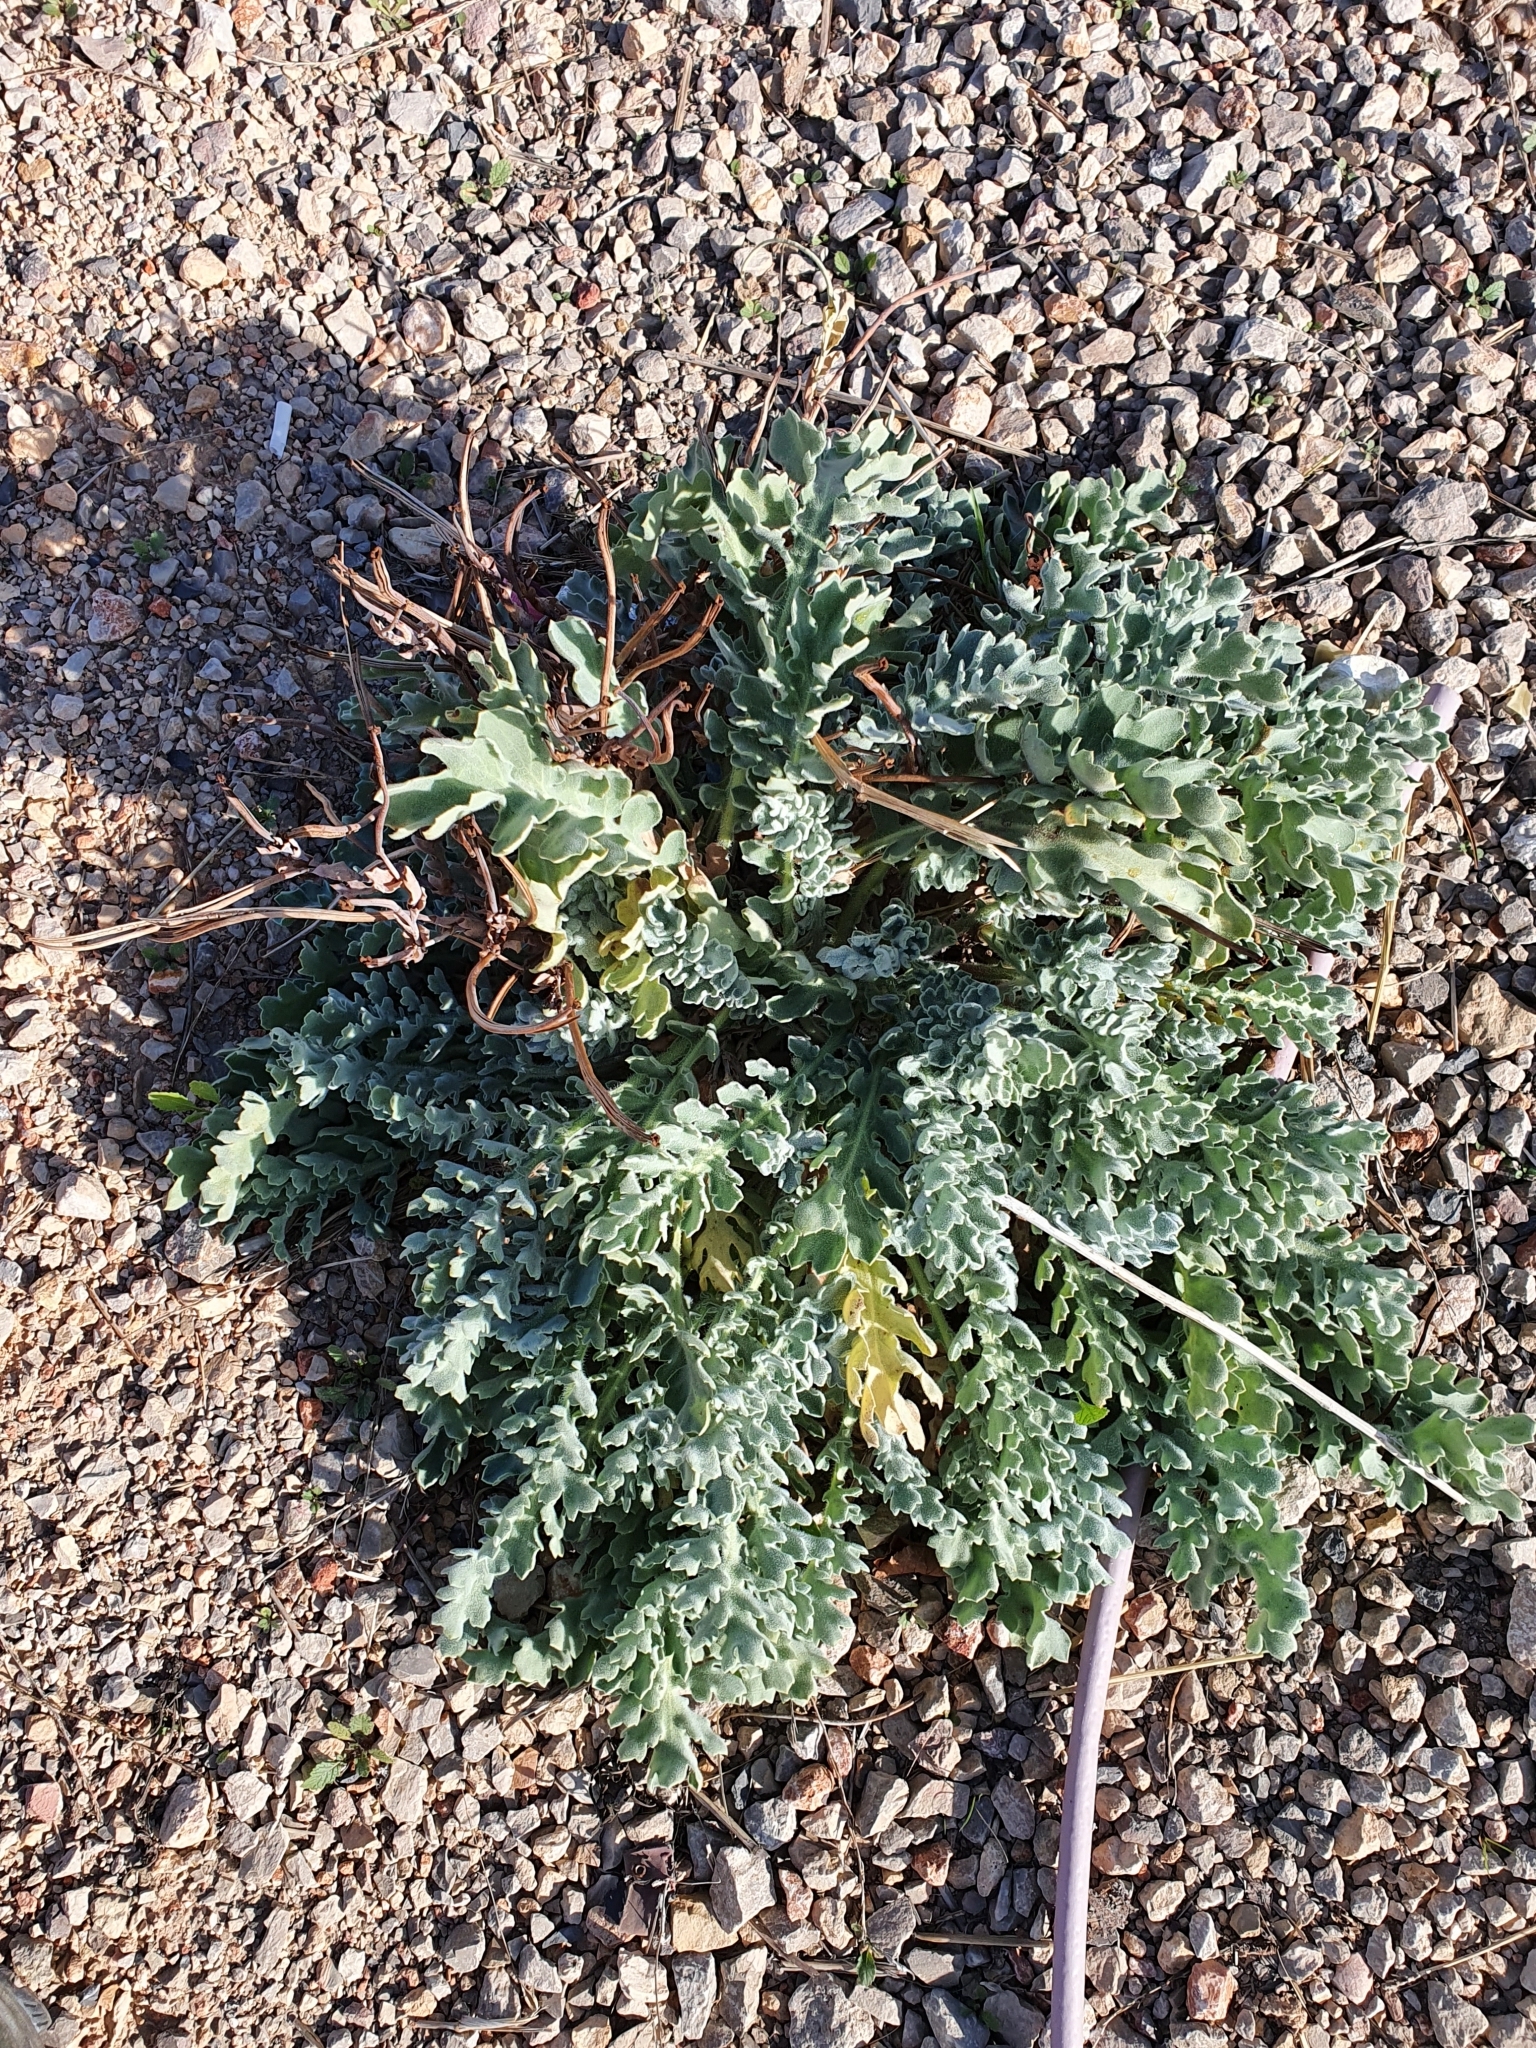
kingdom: Plantae
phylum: Tracheophyta
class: Magnoliopsida
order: Ranunculales
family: Papaveraceae
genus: Glaucium
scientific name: Glaucium flavum
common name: Yellow horned-poppy
